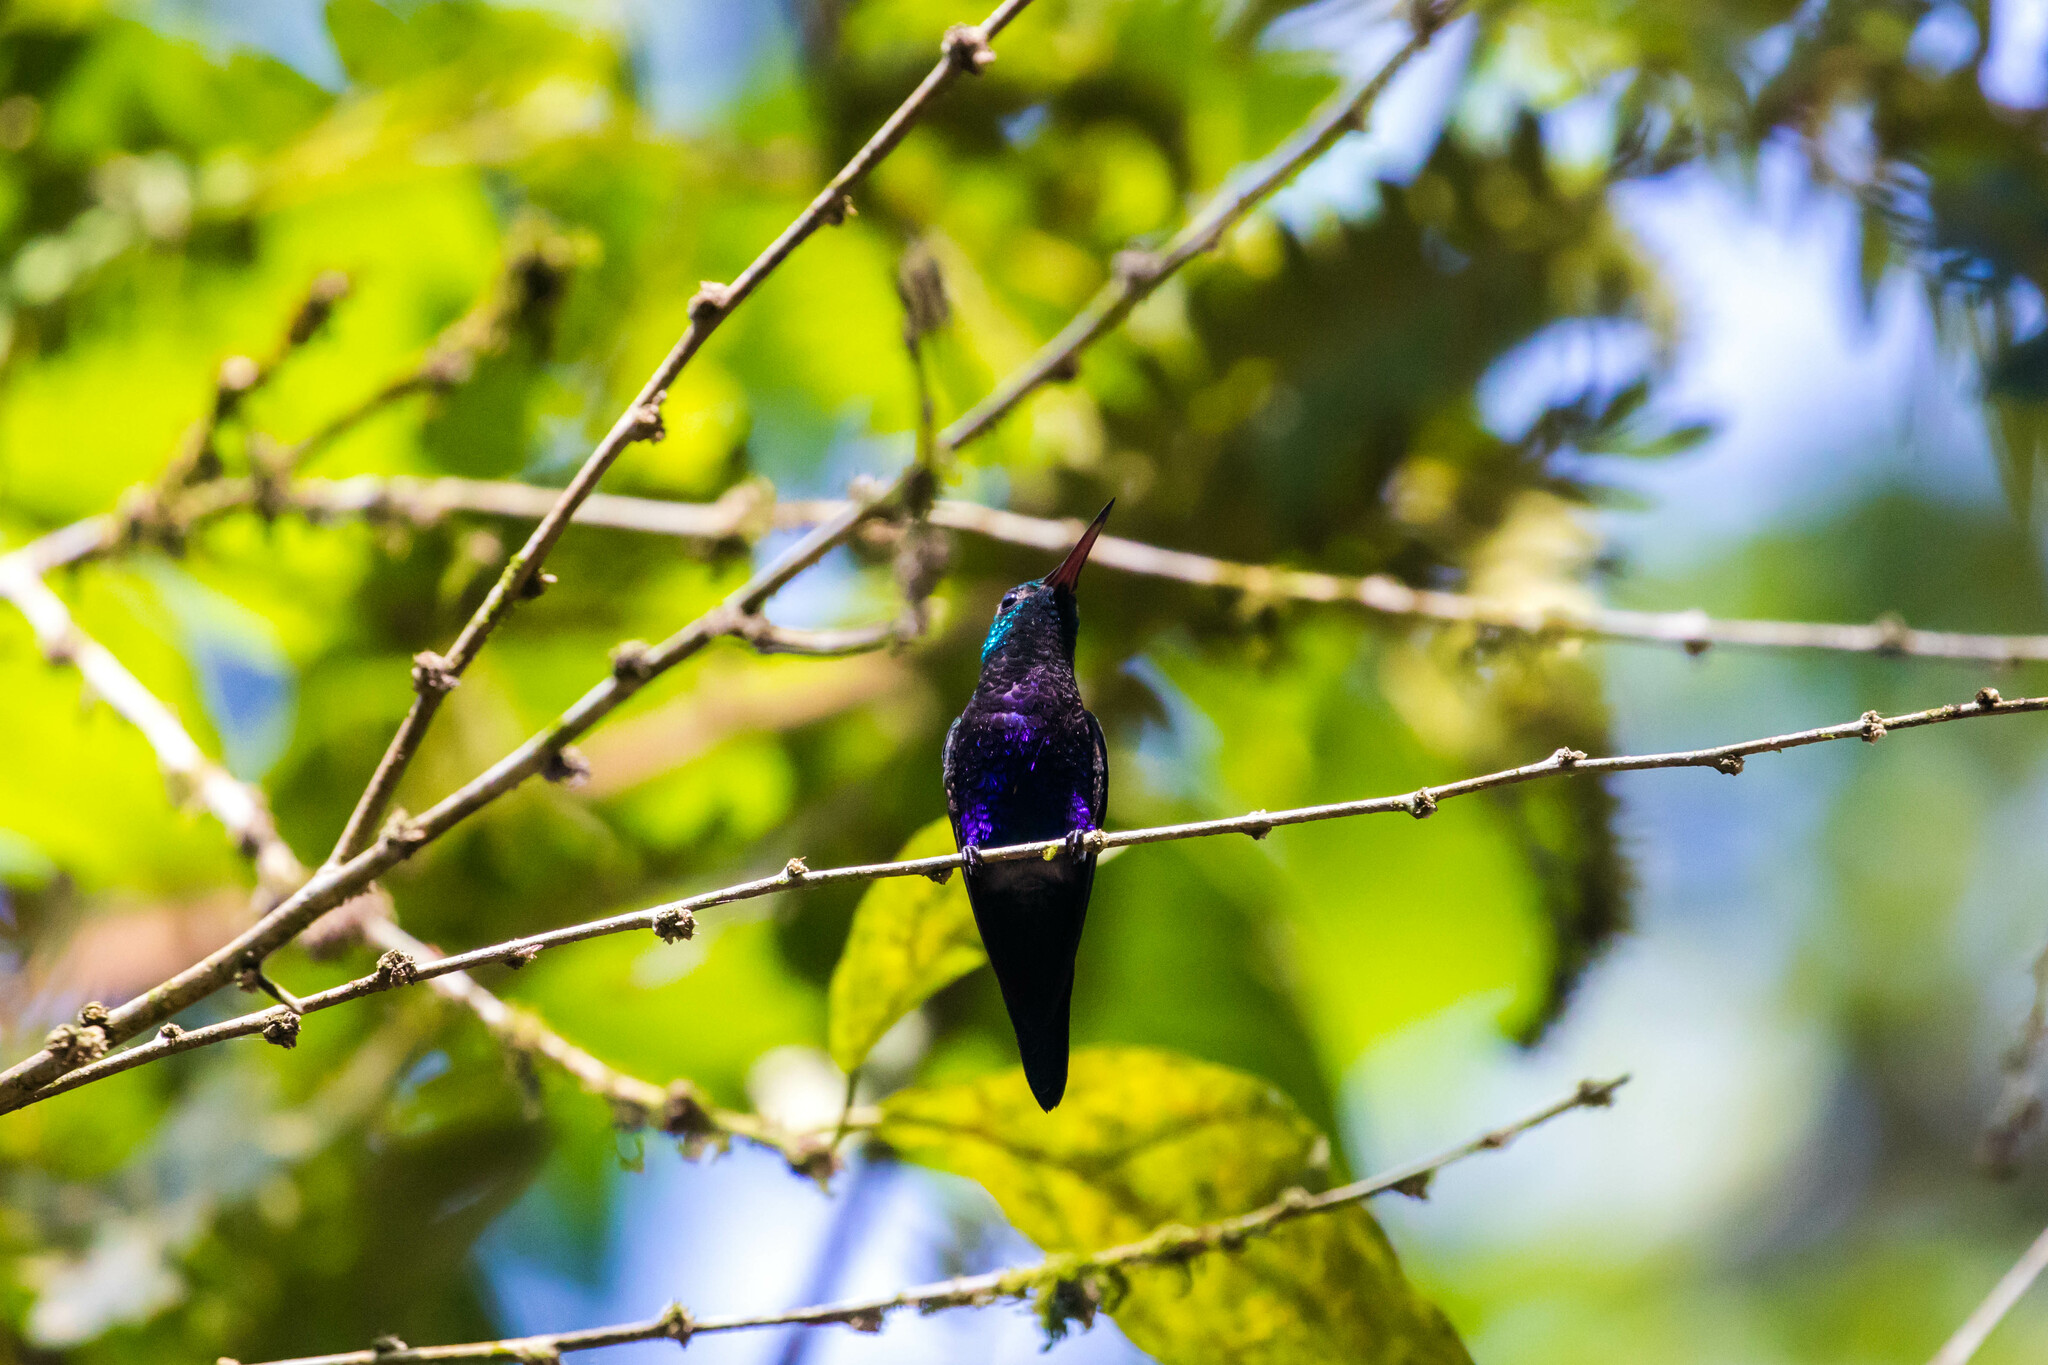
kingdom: Animalia
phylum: Chordata
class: Aves
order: Apodiformes
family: Trochilidae
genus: Chlorestes
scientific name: Chlorestes julie
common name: Violet-bellied hummingbird
